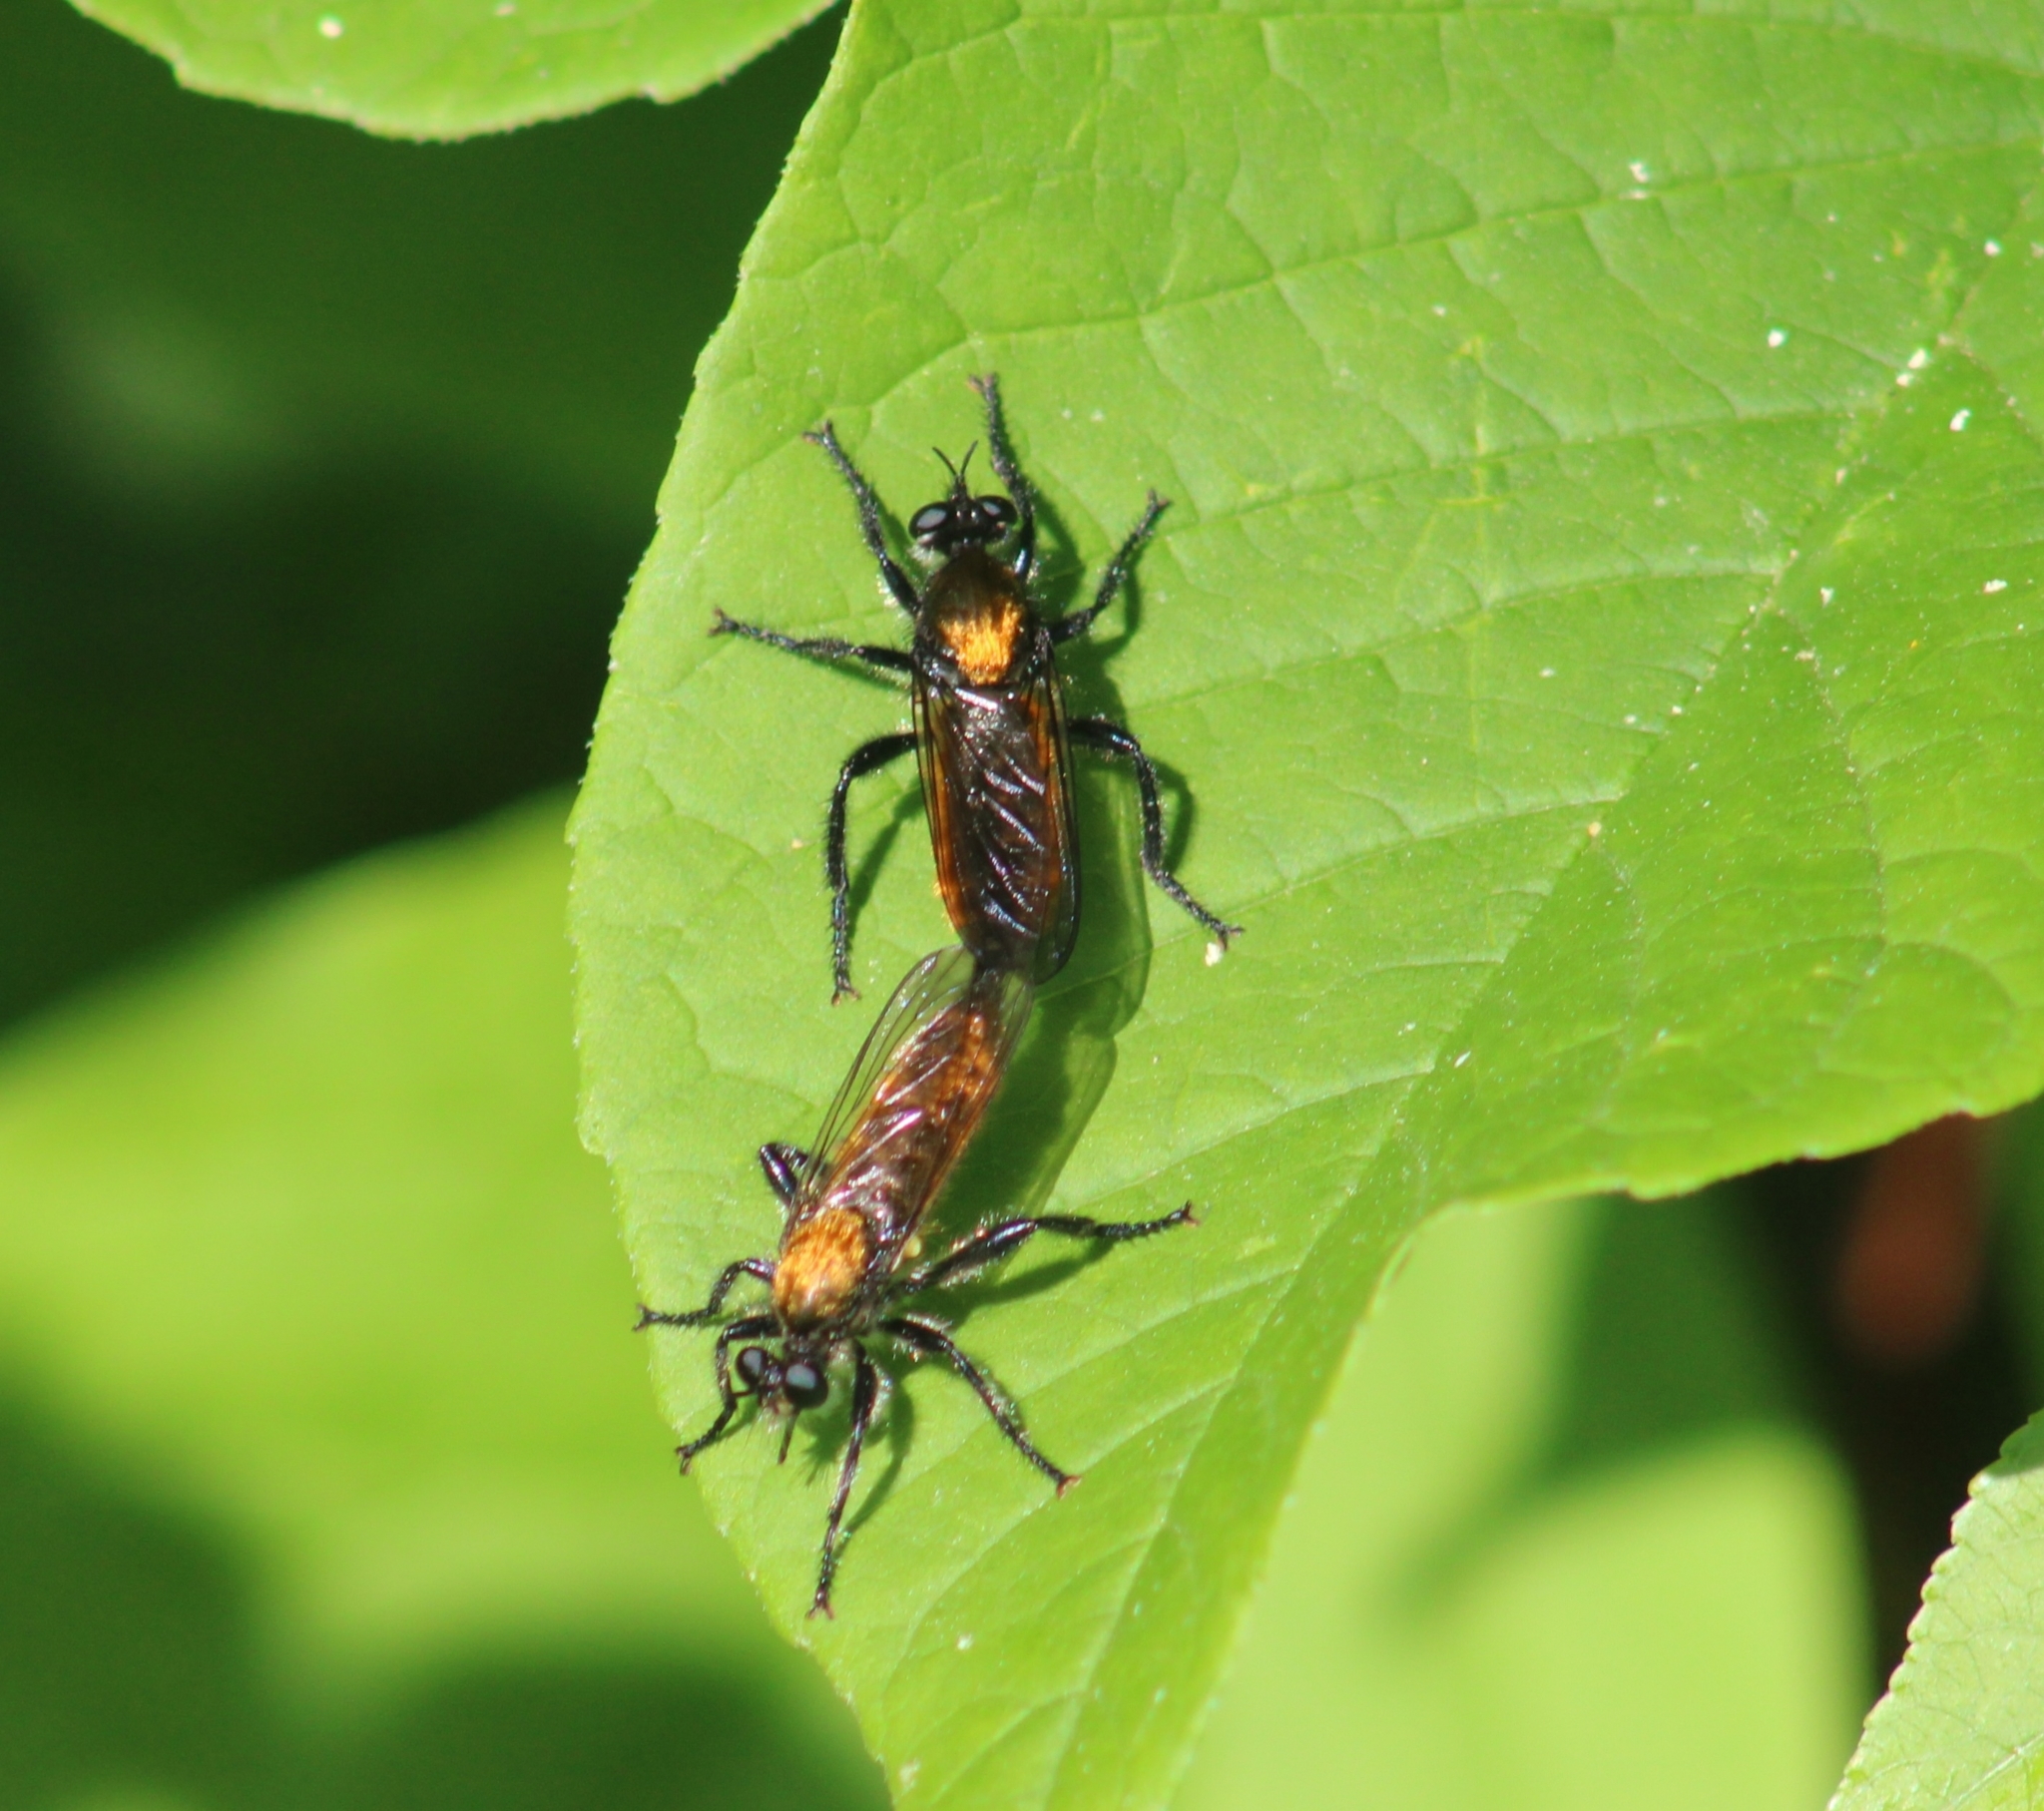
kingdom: Animalia
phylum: Arthropoda
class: Insecta
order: Diptera
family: Asilidae
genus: Laphria
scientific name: Laphria
